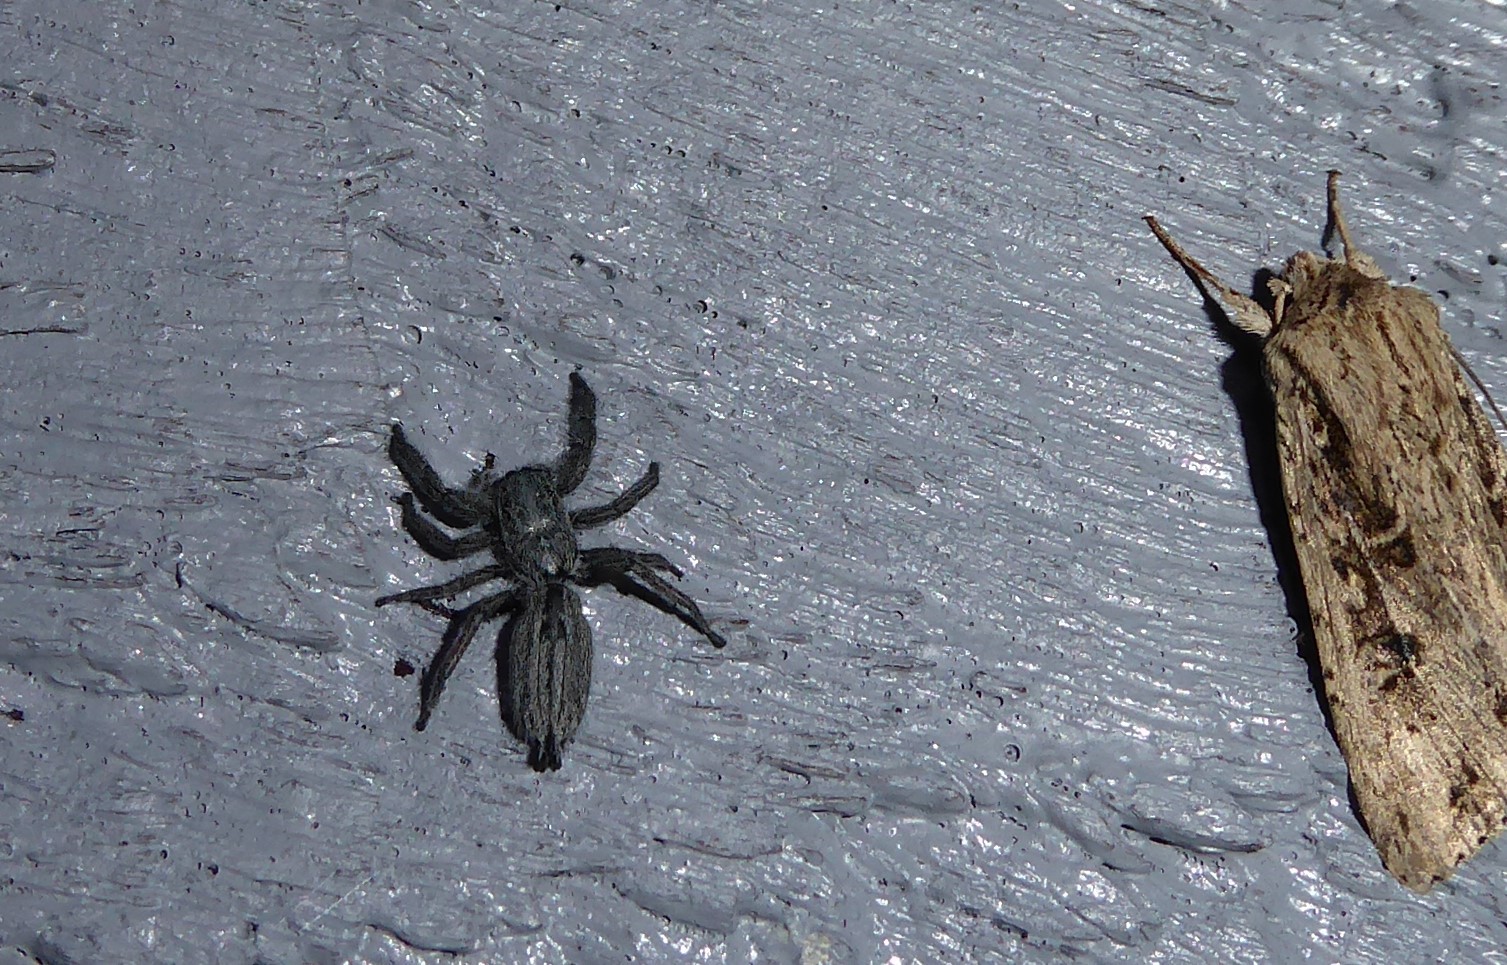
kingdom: Animalia
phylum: Arthropoda
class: Arachnida
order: Araneae
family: Salticidae
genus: Holoplatys
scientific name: Holoplatys apressus
